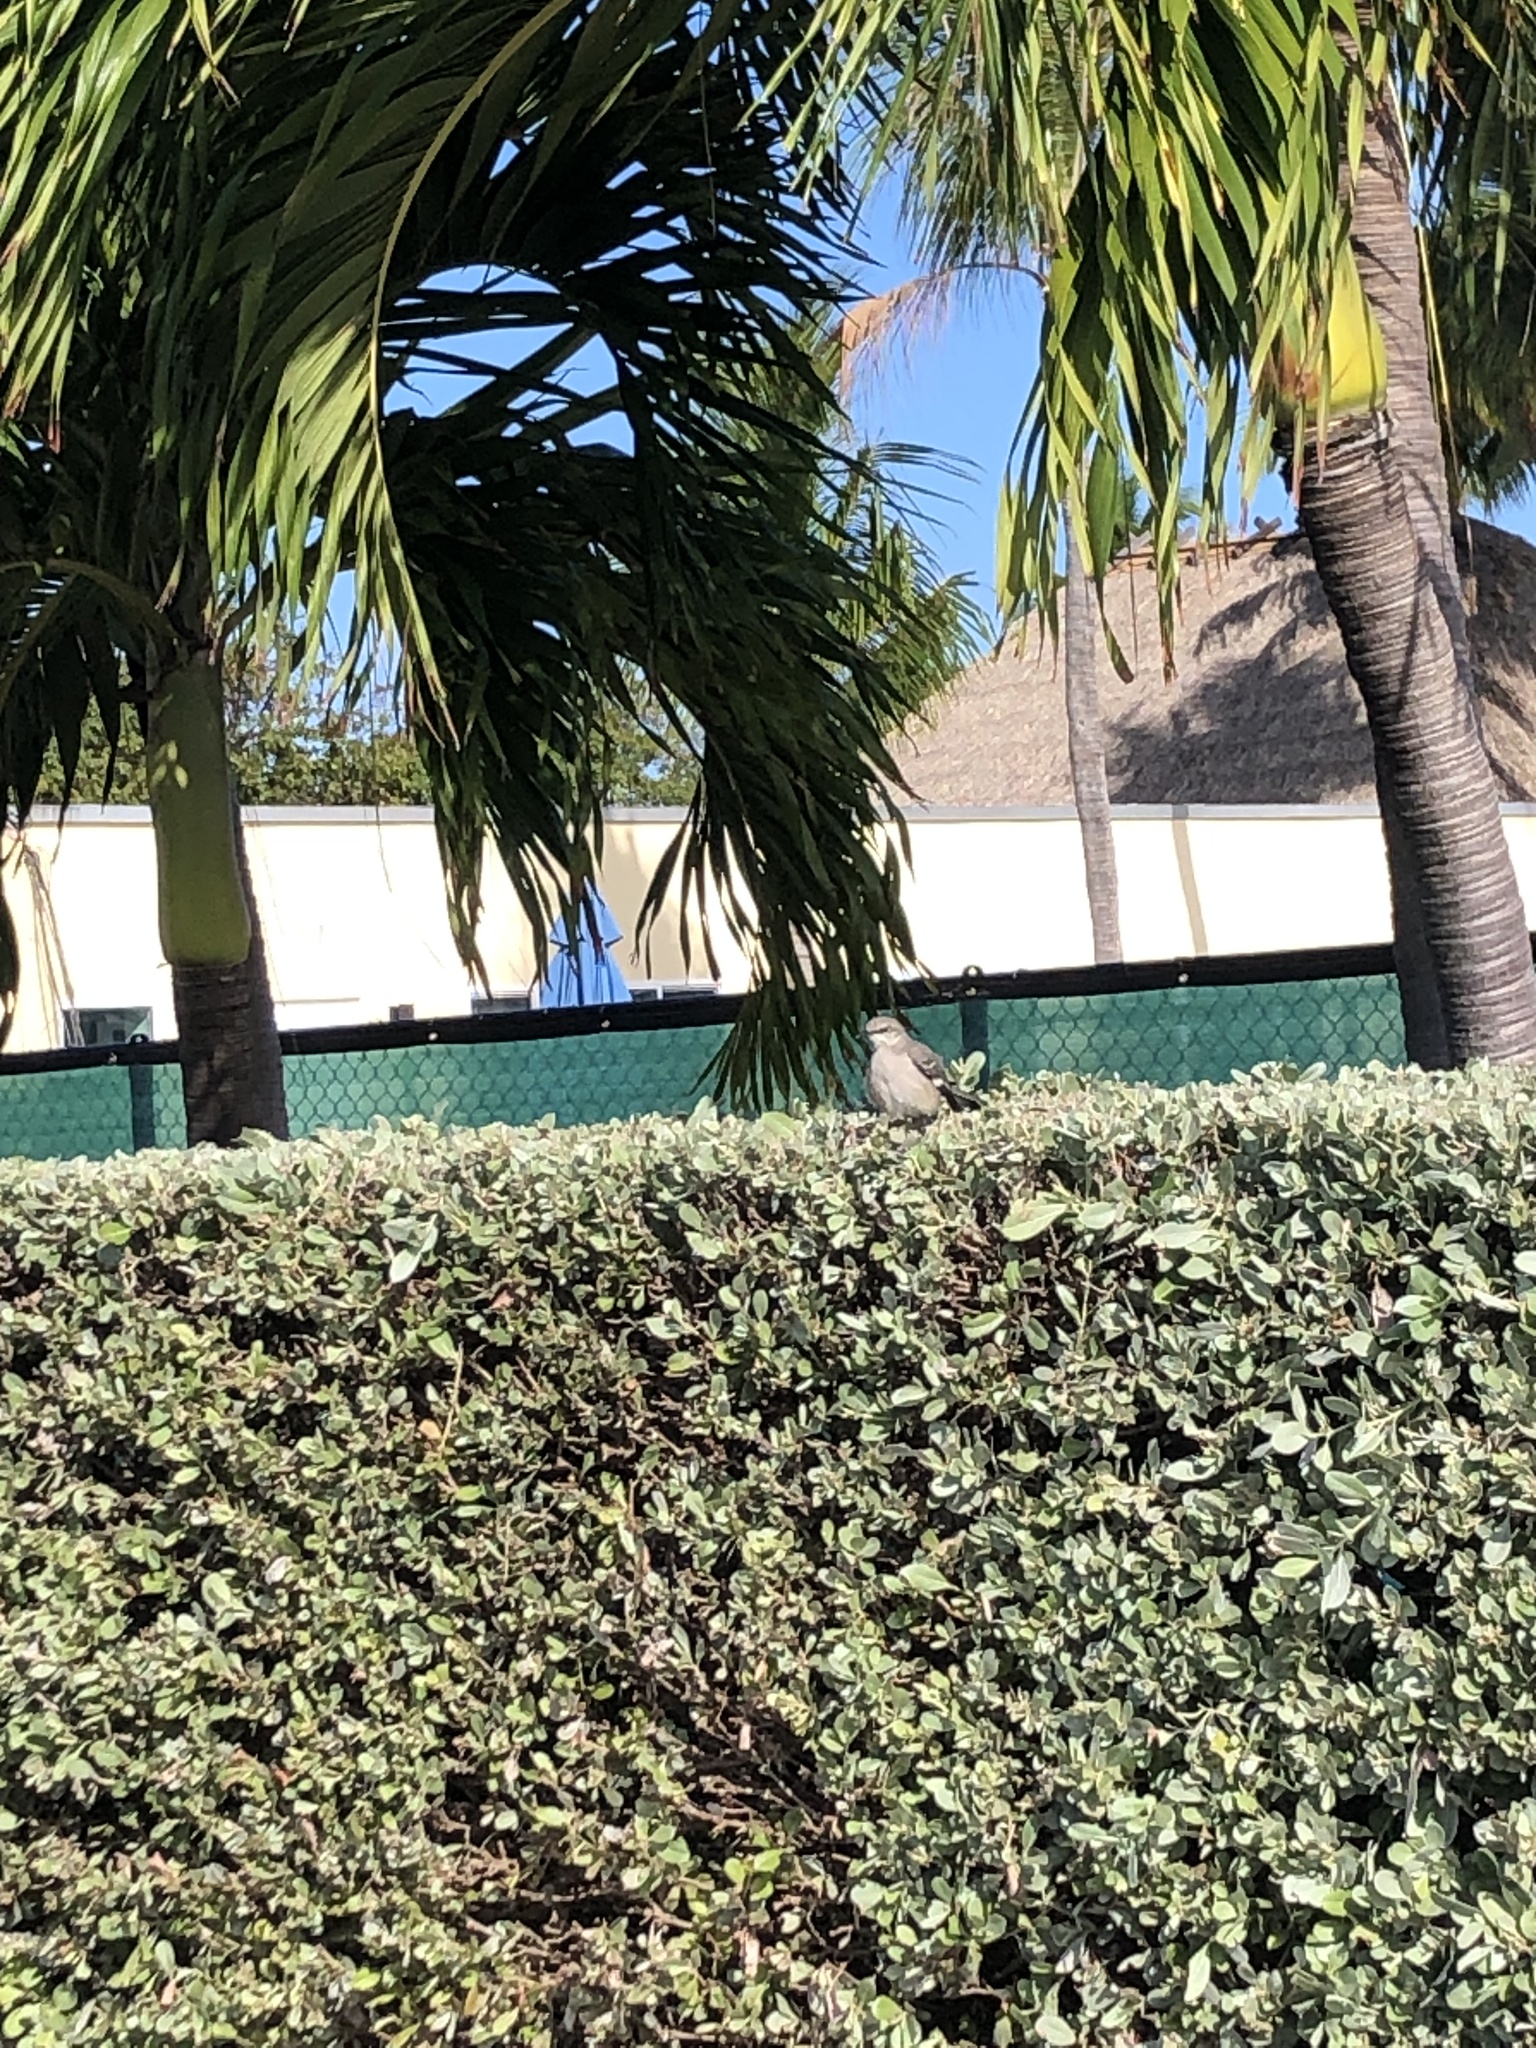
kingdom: Animalia
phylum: Chordata
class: Aves
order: Passeriformes
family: Mimidae
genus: Mimus
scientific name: Mimus polyglottos
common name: Northern mockingbird
